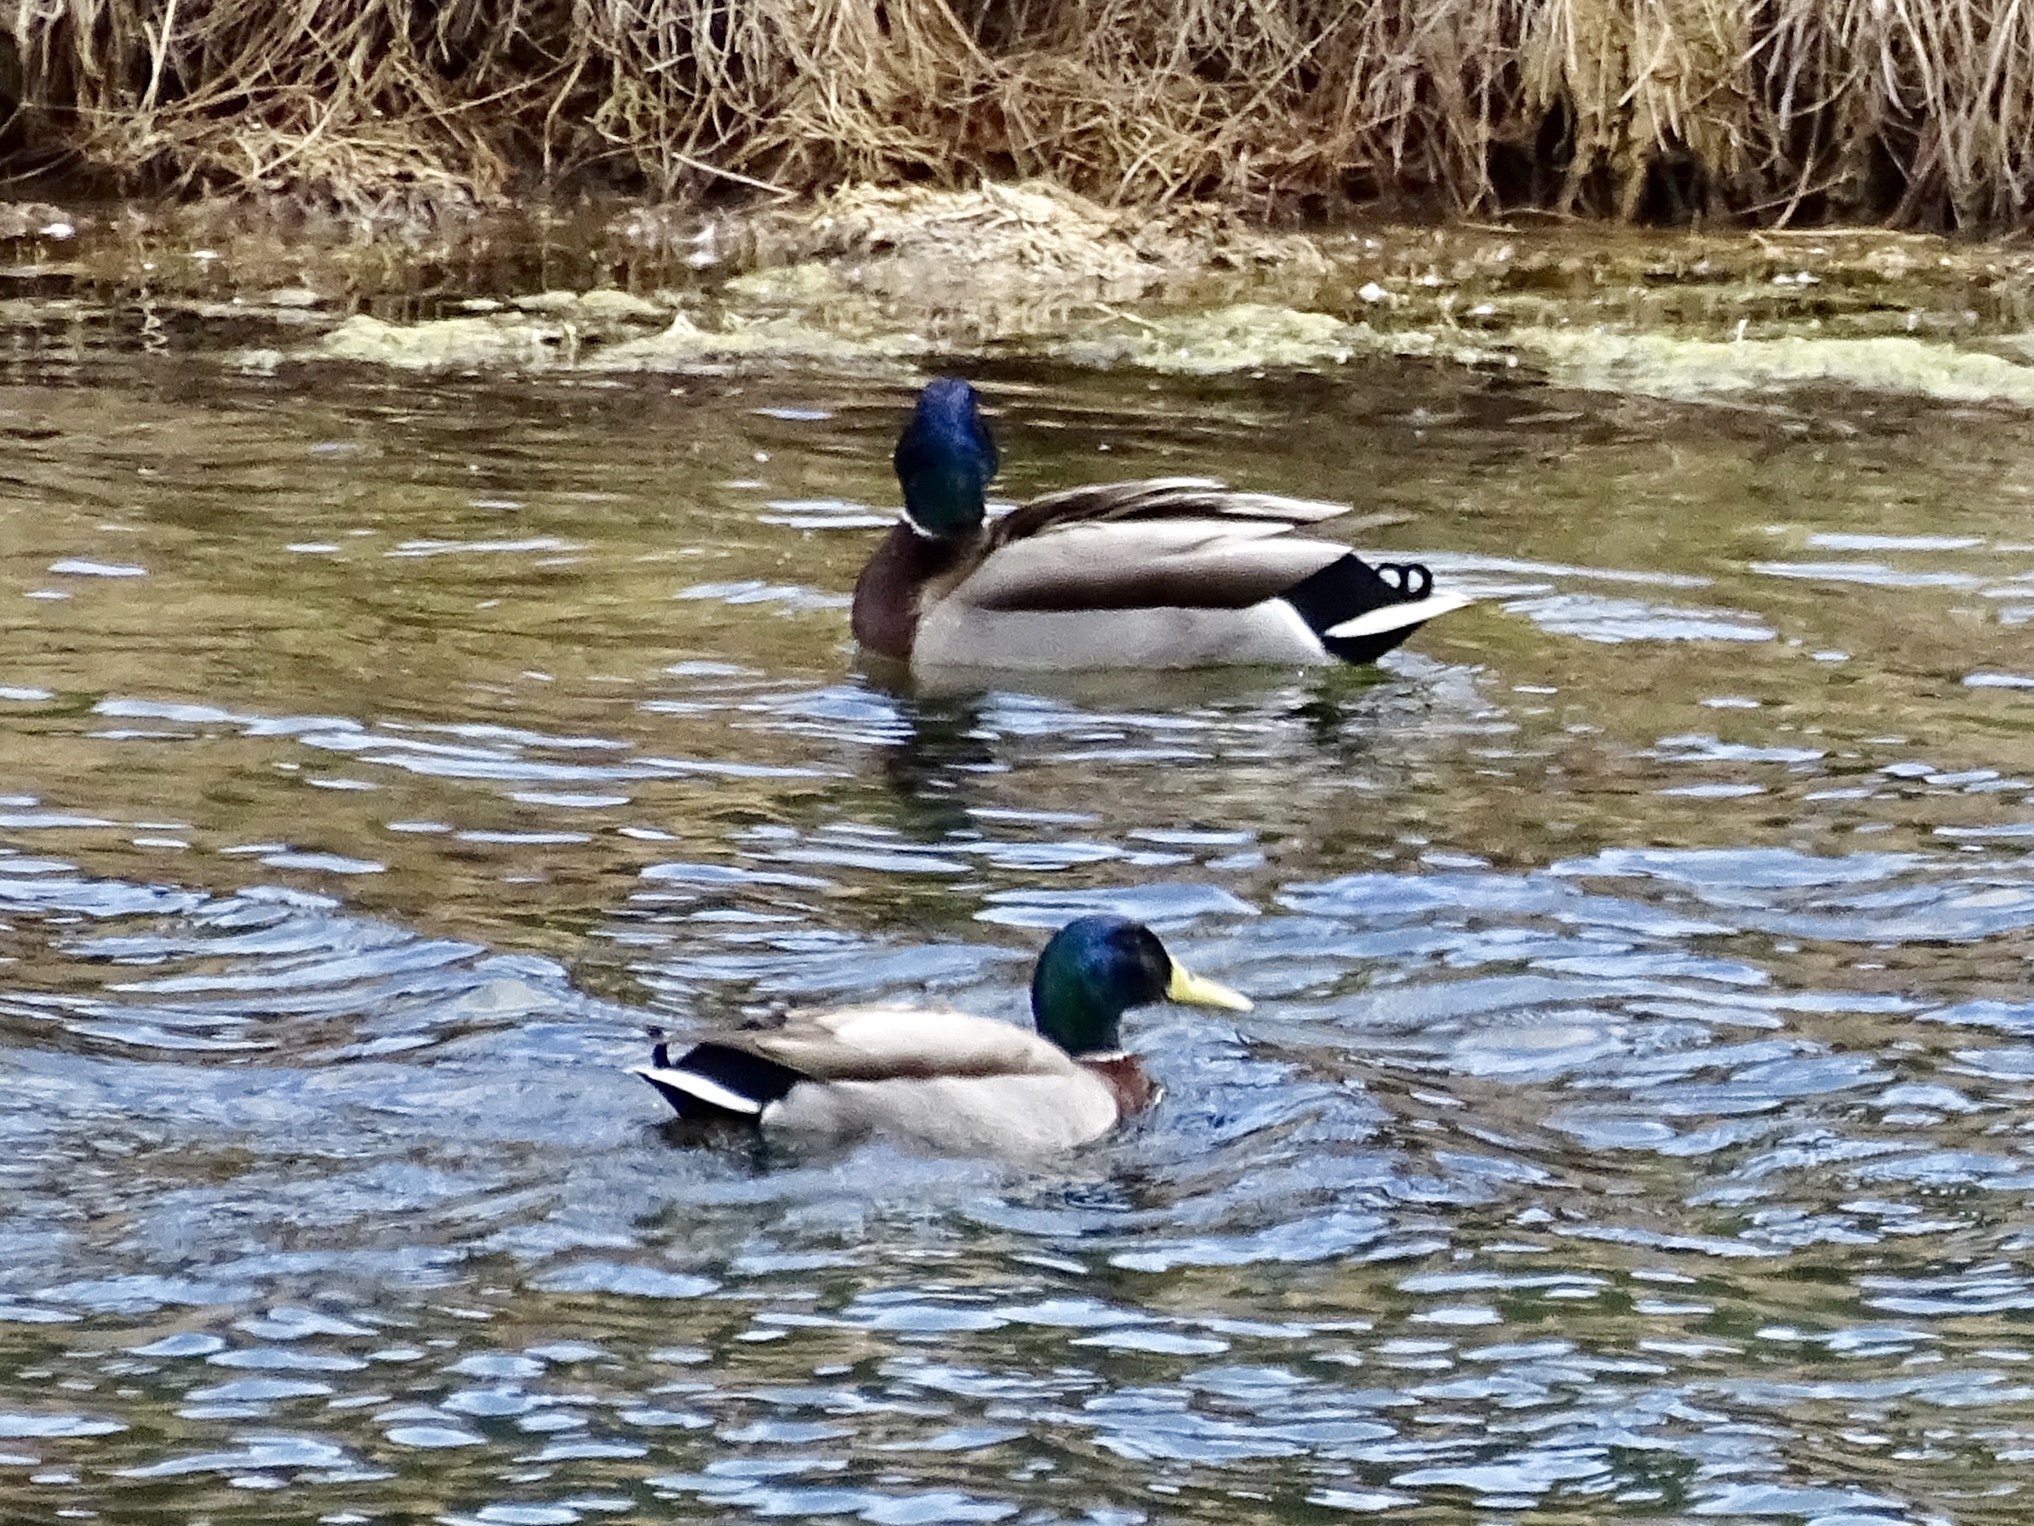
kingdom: Animalia
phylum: Chordata
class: Aves
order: Anseriformes
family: Anatidae
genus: Anas
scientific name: Anas platyrhynchos
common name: Mallard
